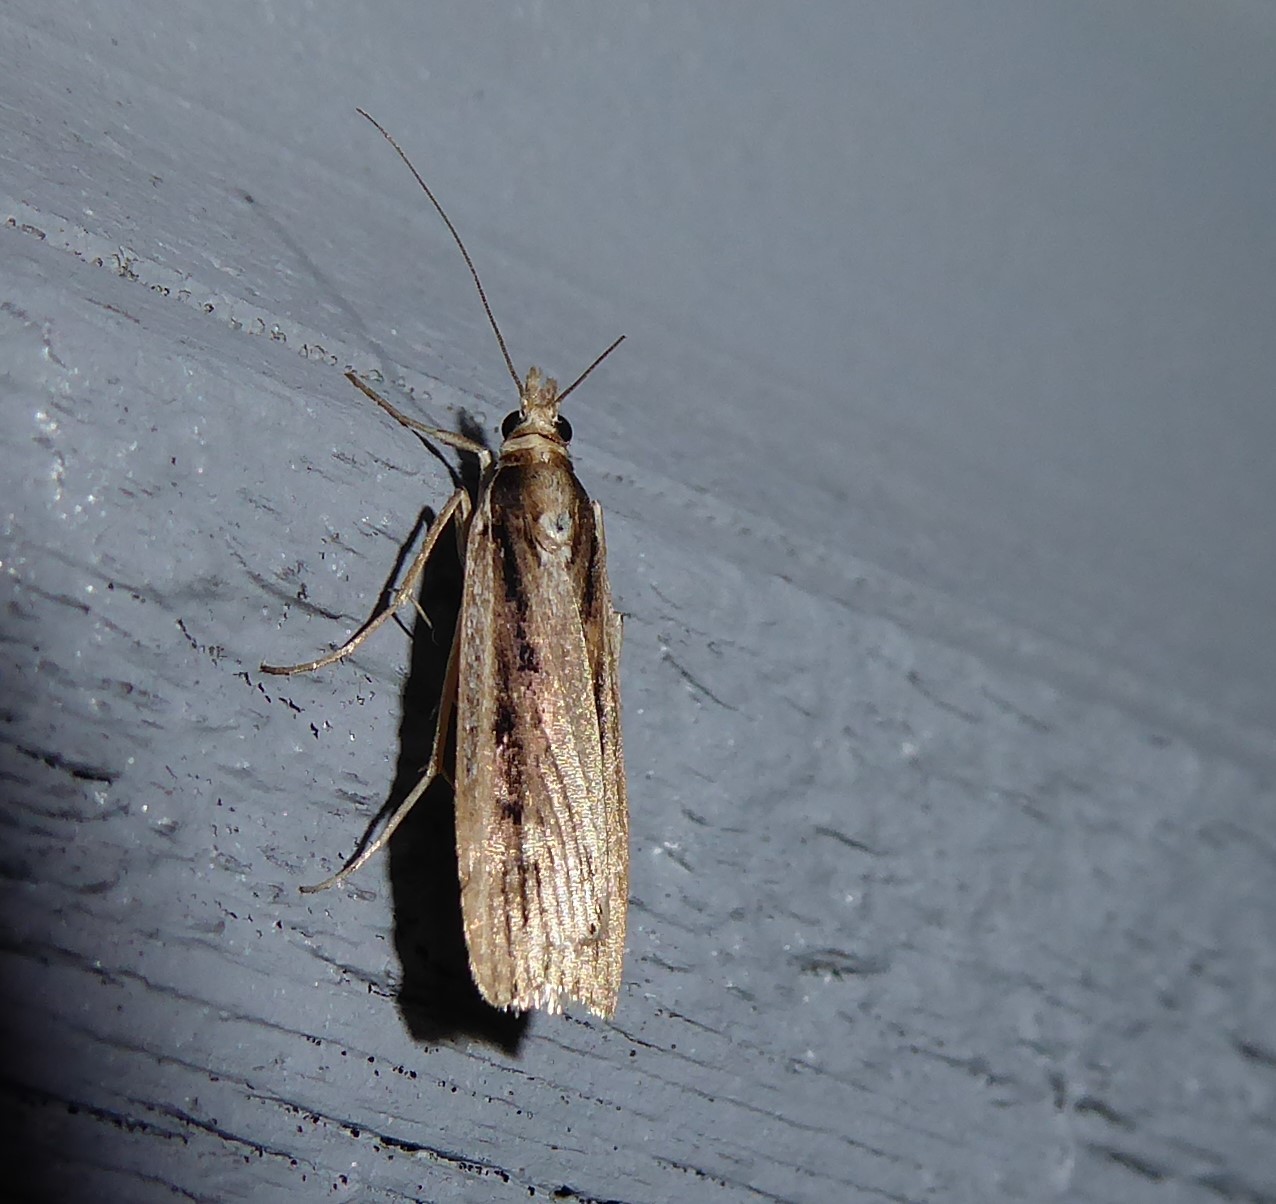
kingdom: Animalia
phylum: Arthropoda
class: Insecta
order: Lepidoptera
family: Crambidae
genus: Eudonia
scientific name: Eudonia sabulosella
